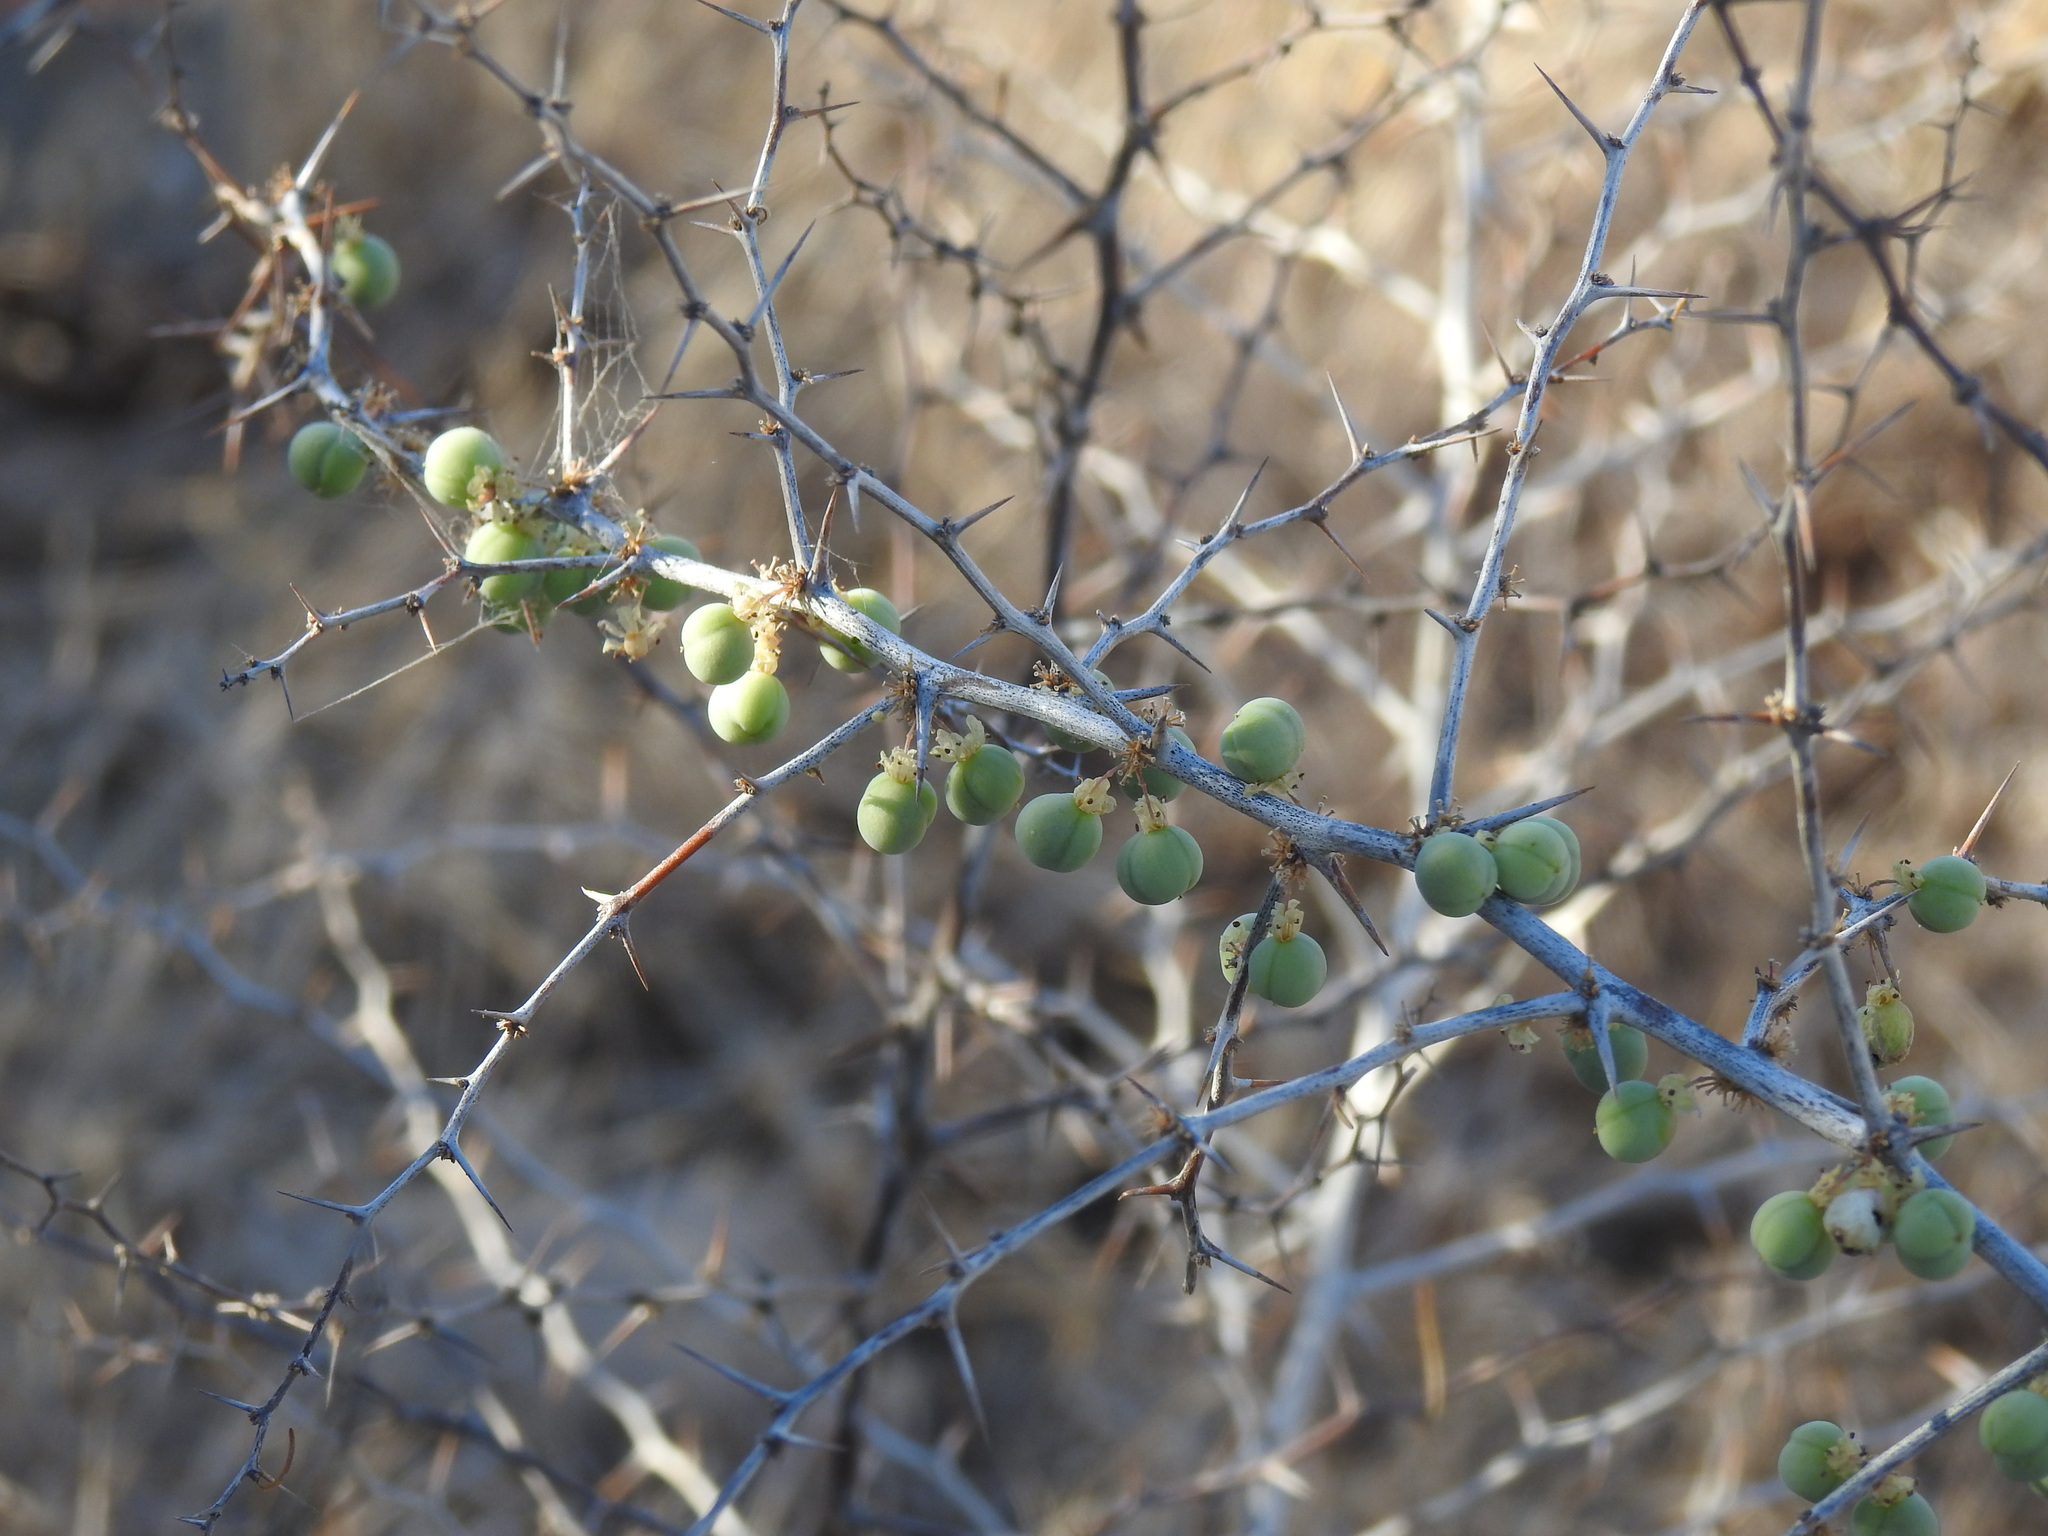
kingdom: Plantae
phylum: Tracheophyta
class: Liliopsida
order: Asparagales
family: Asparagaceae
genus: Asparagus
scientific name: Asparagus albus
